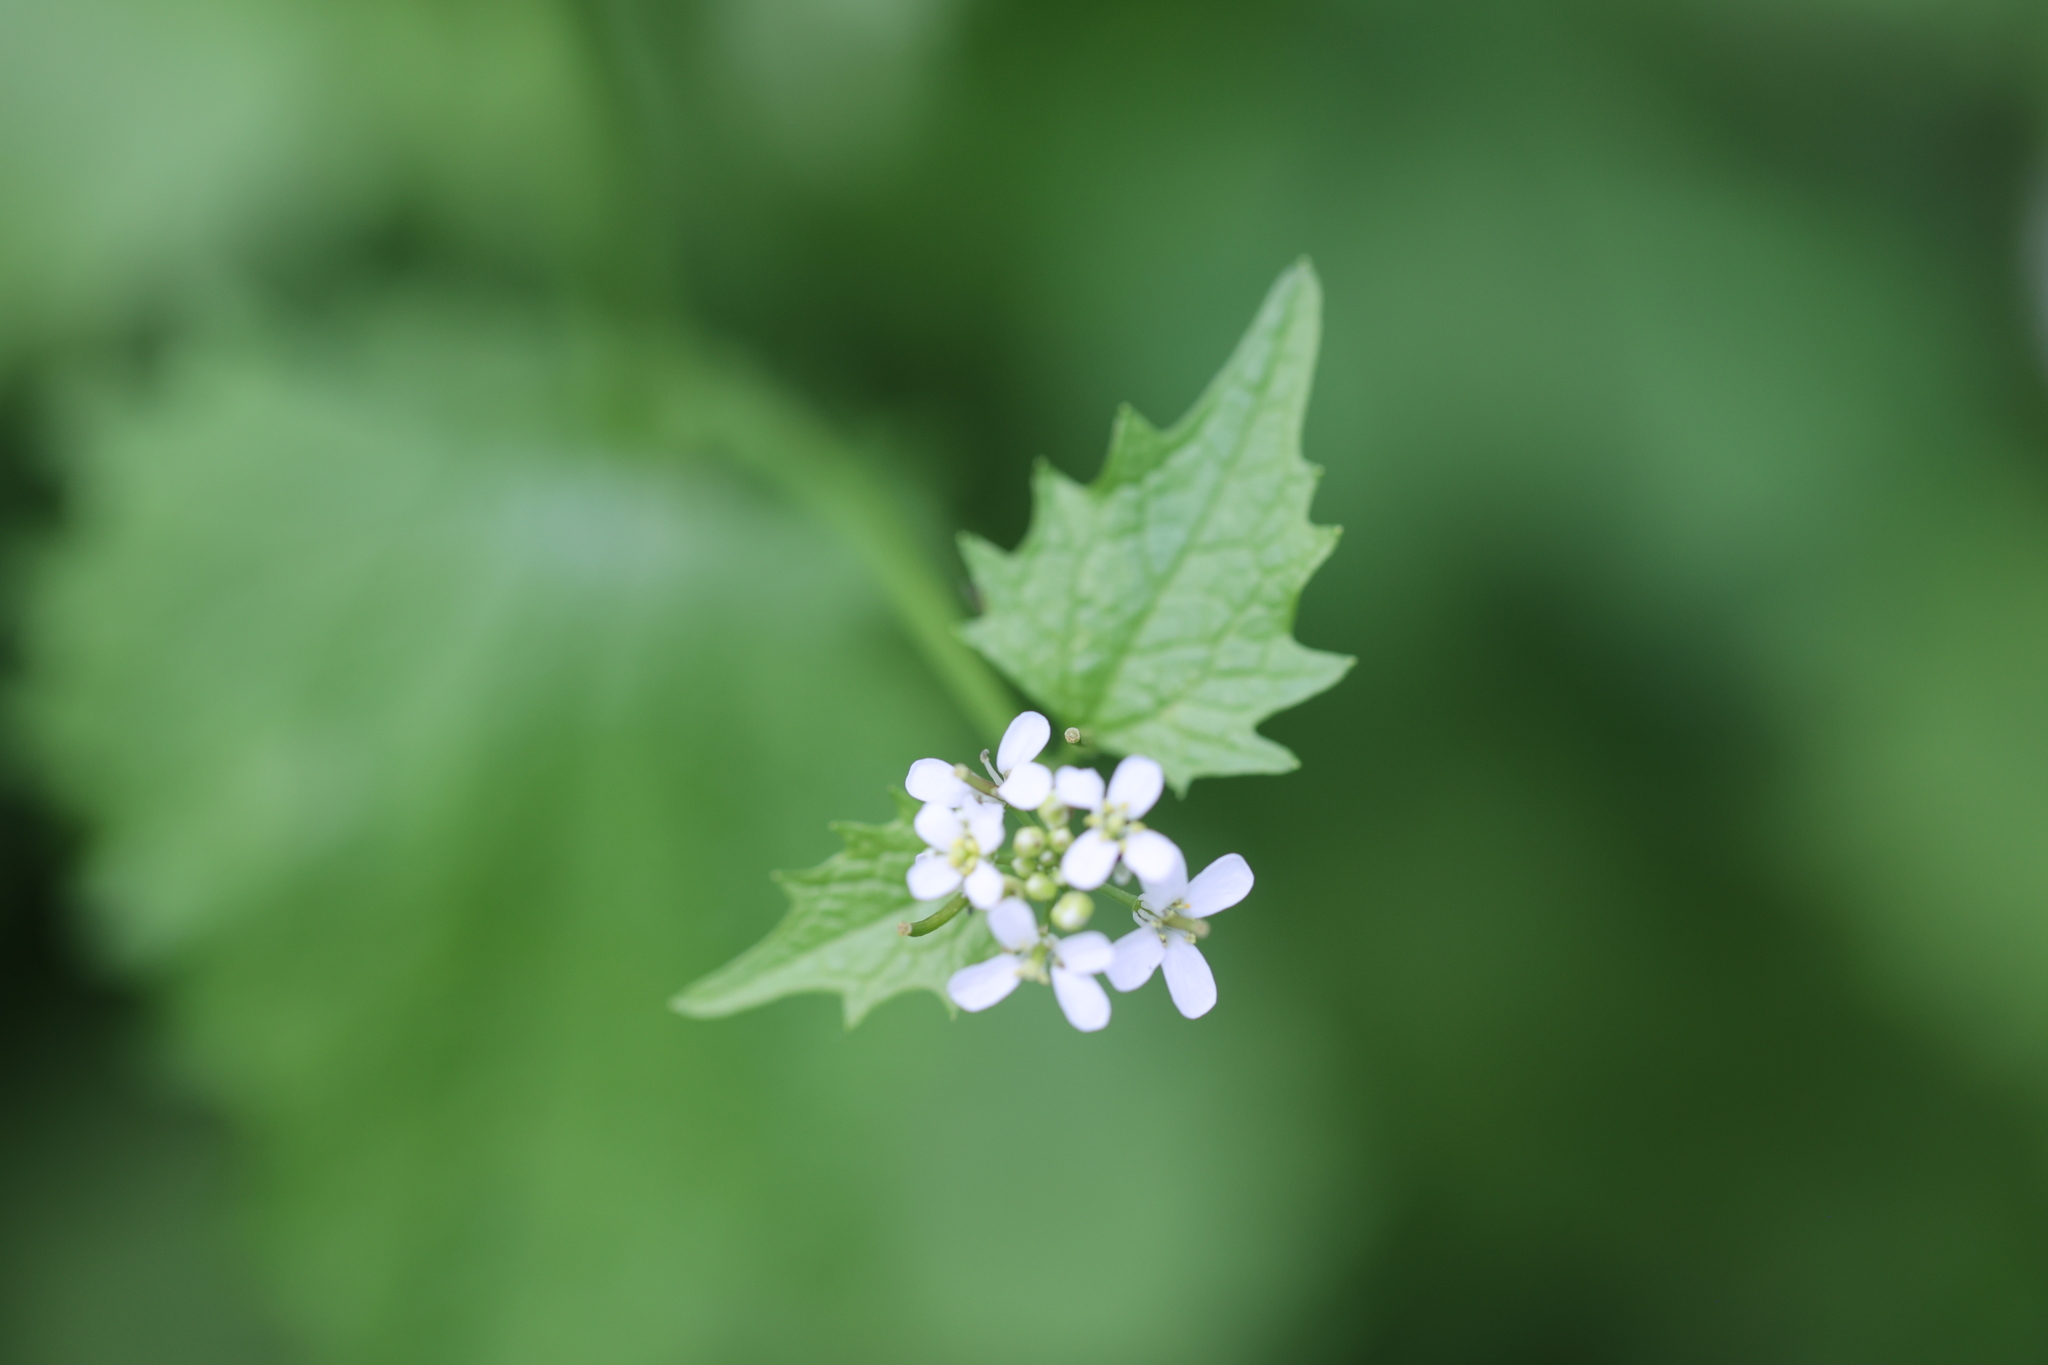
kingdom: Plantae
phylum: Tracheophyta
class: Magnoliopsida
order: Brassicales
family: Brassicaceae
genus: Alliaria
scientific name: Alliaria petiolata
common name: Garlic mustard
